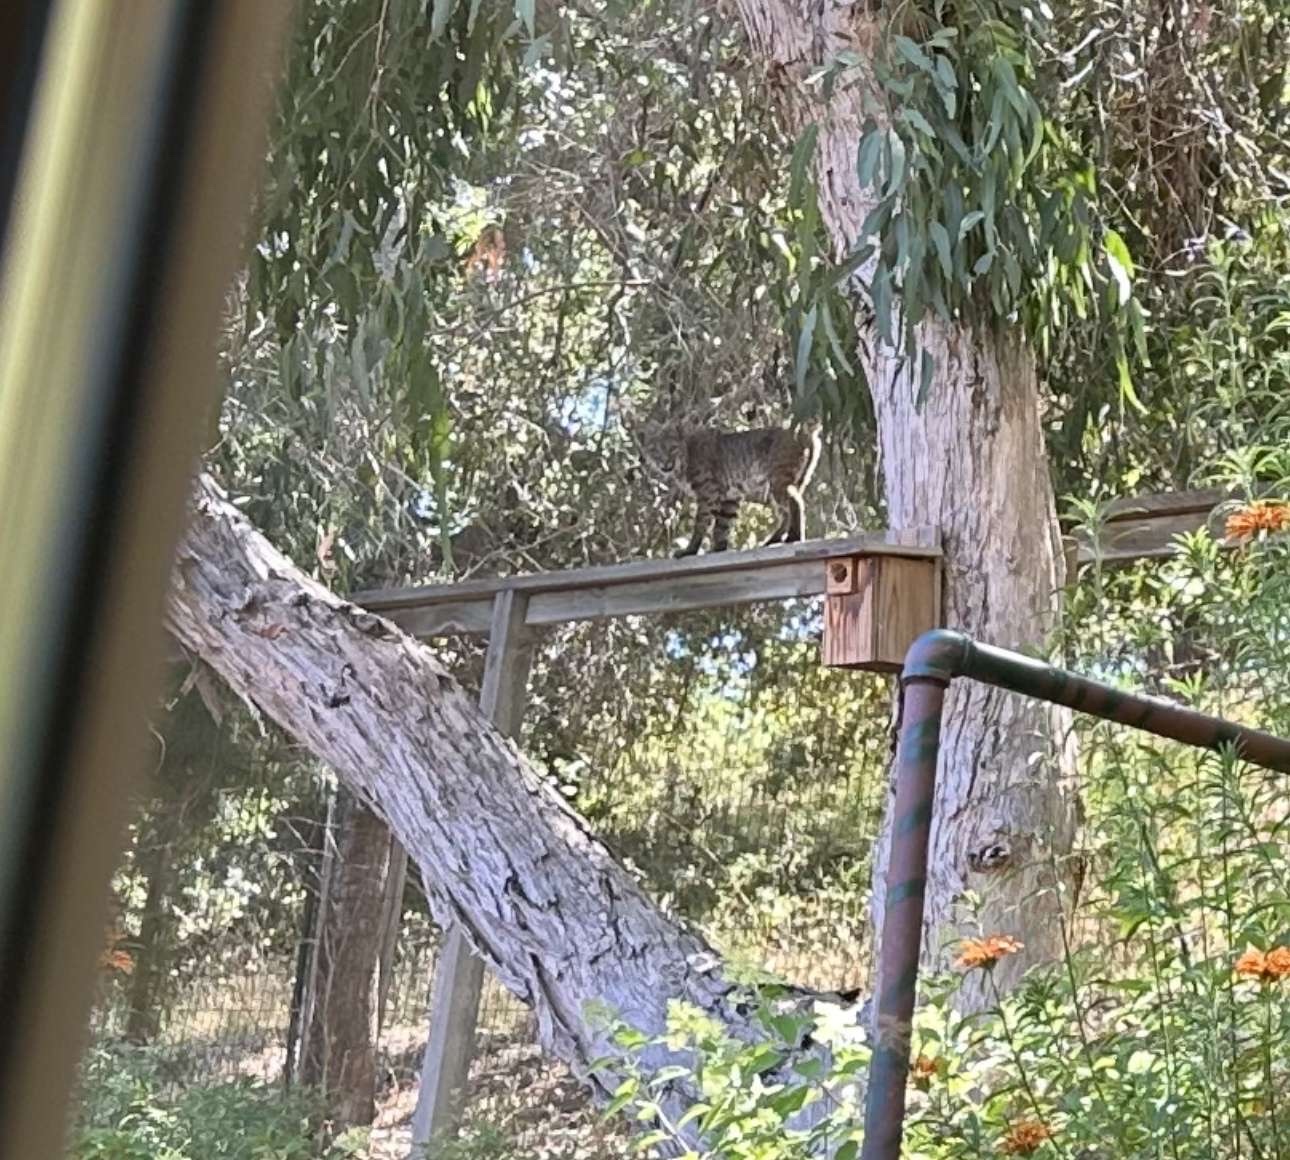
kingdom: Animalia
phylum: Chordata
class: Mammalia
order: Carnivora
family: Felidae
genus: Lynx
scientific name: Lynx rufus
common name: Bobcat
